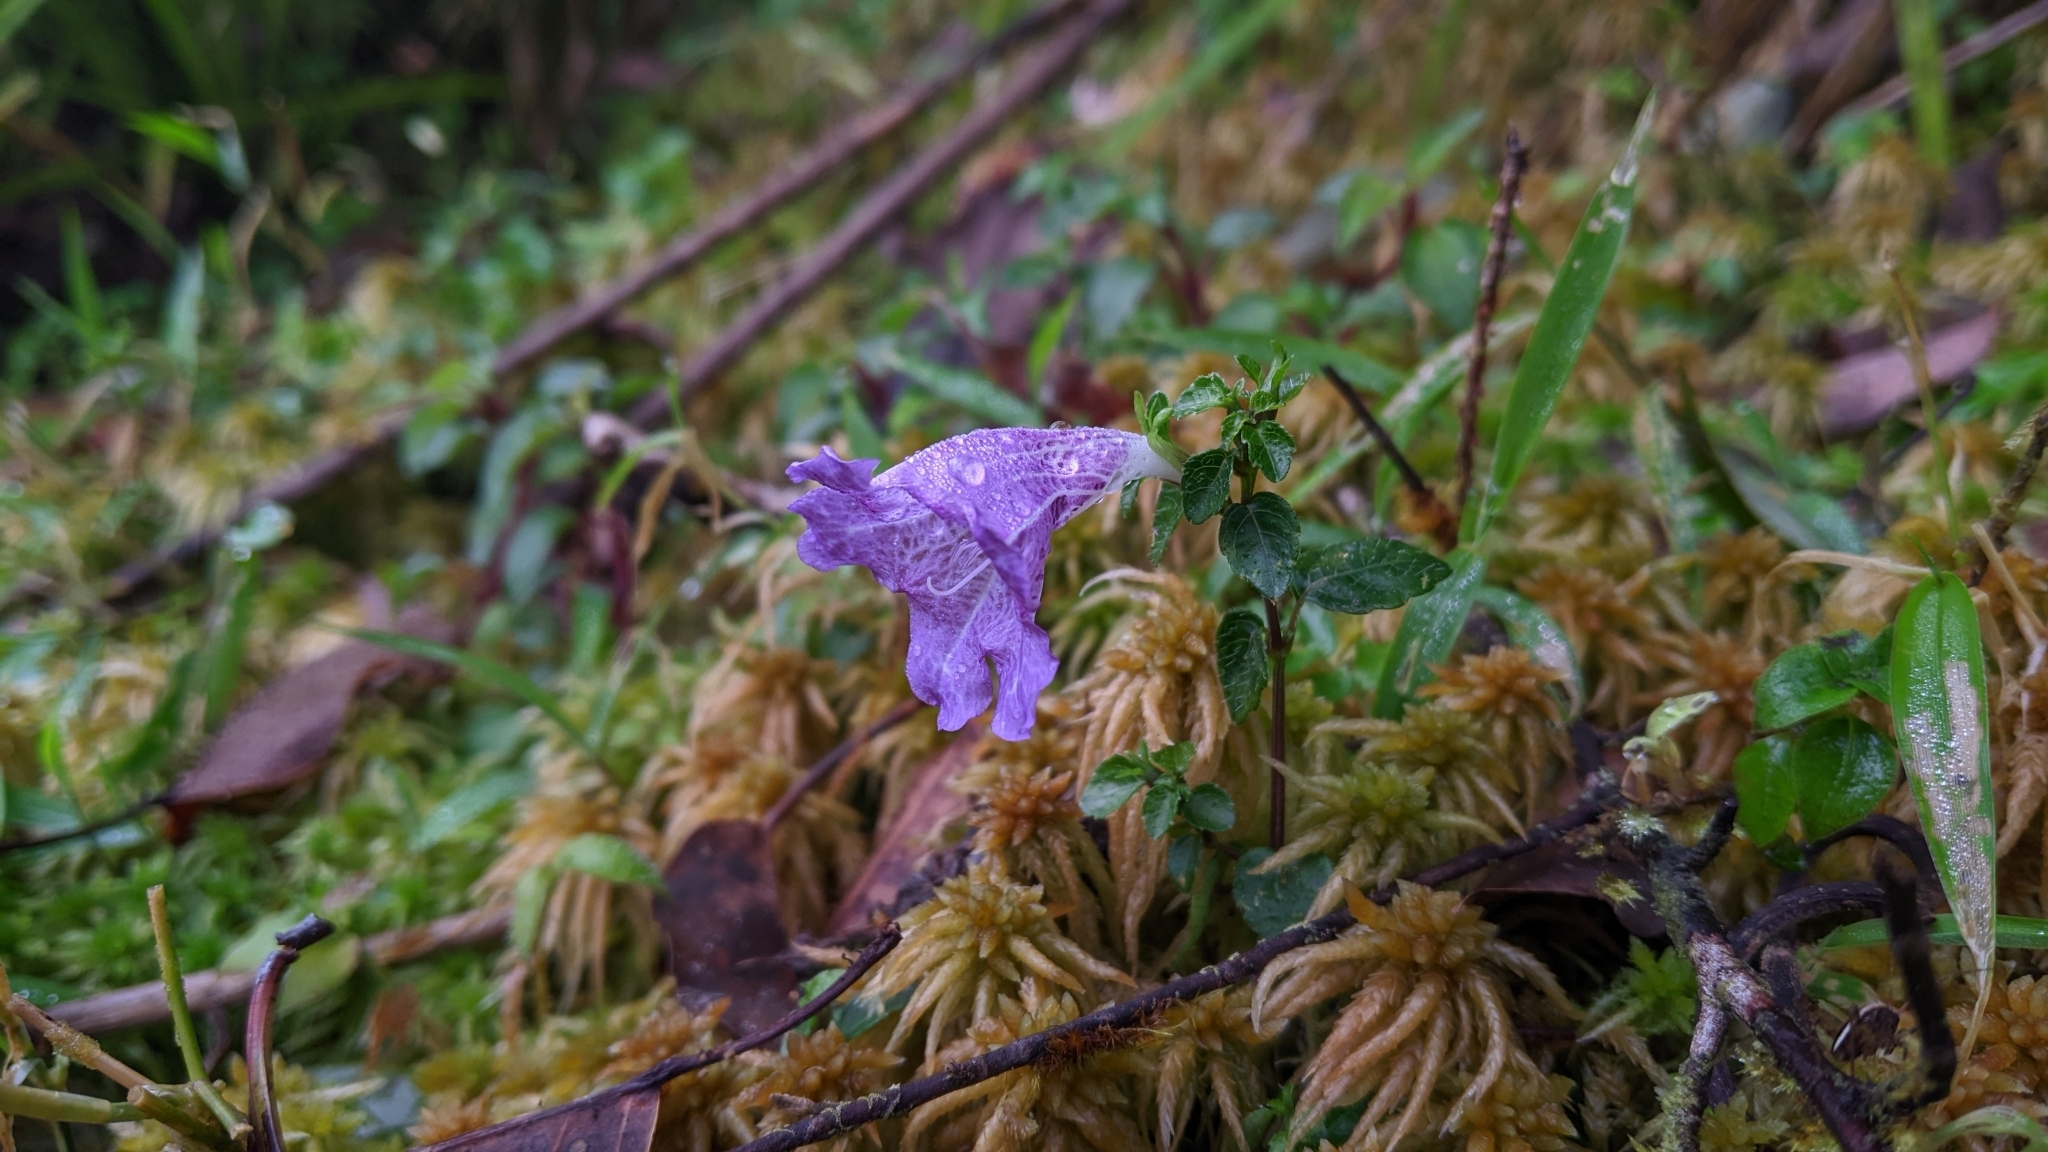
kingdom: Plantae
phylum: Tracheophyta
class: Magnoliopsida
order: Lamiales
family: Acanthaceae
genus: Strobilanthes
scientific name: Strobilanthes rankanensis
